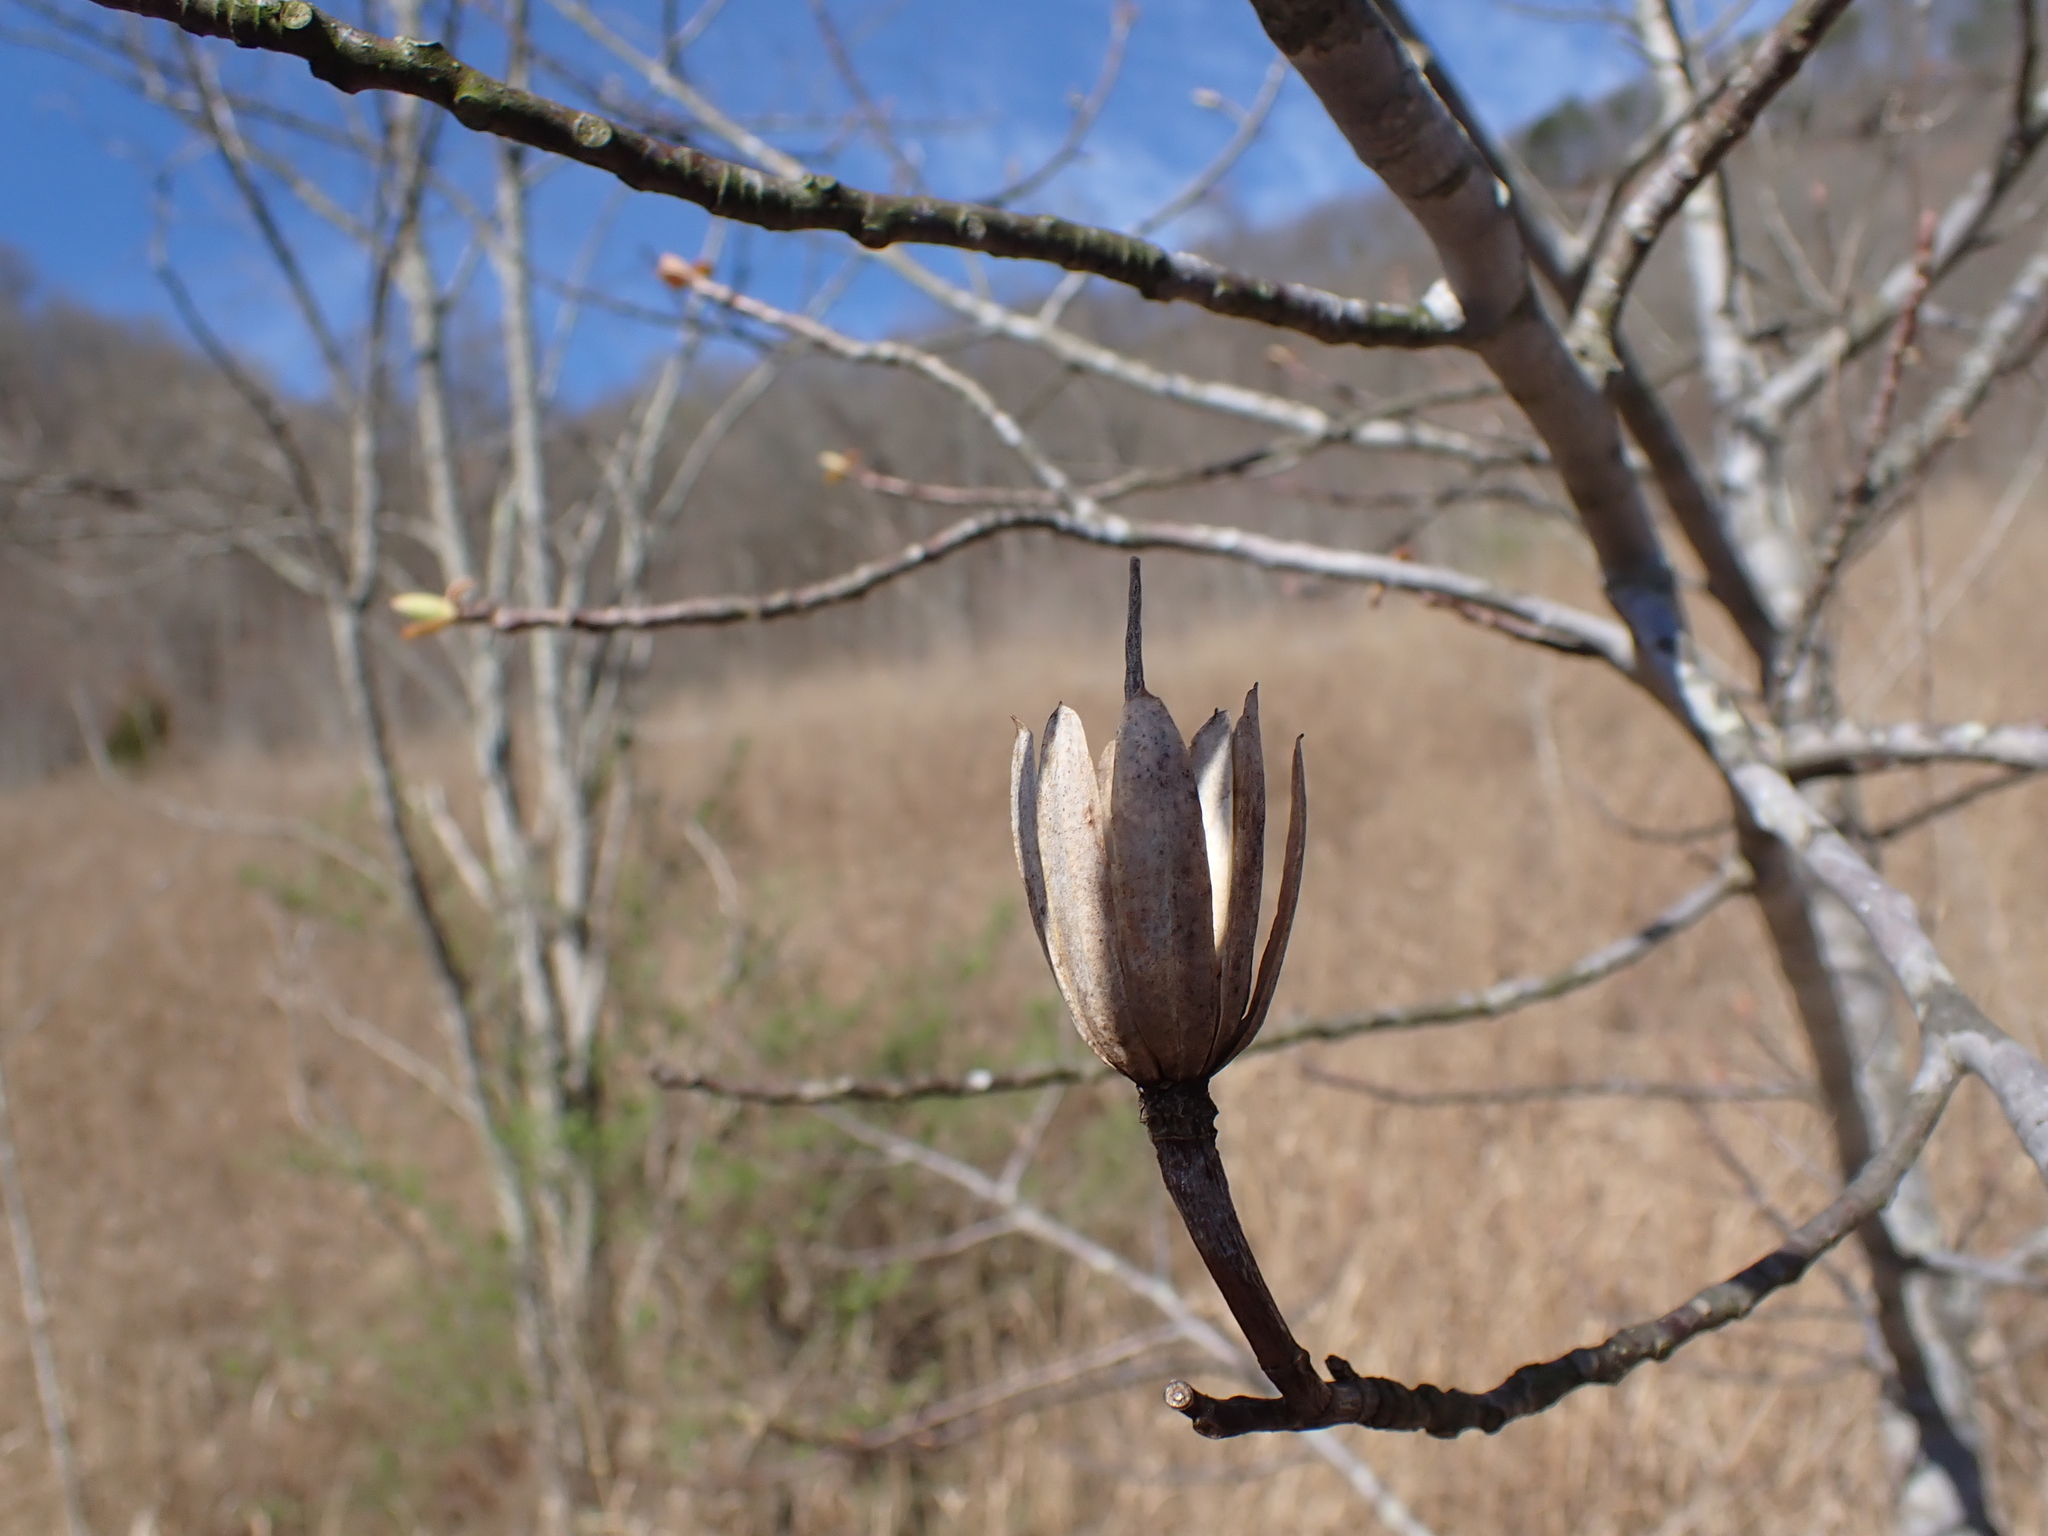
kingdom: Plantae
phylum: Tracheophyta
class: Magnoliopsida
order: Magnoliales
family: Magnoliaceae
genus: Liriodendron
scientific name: Liriodendron tulipifera
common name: Tulip tree
